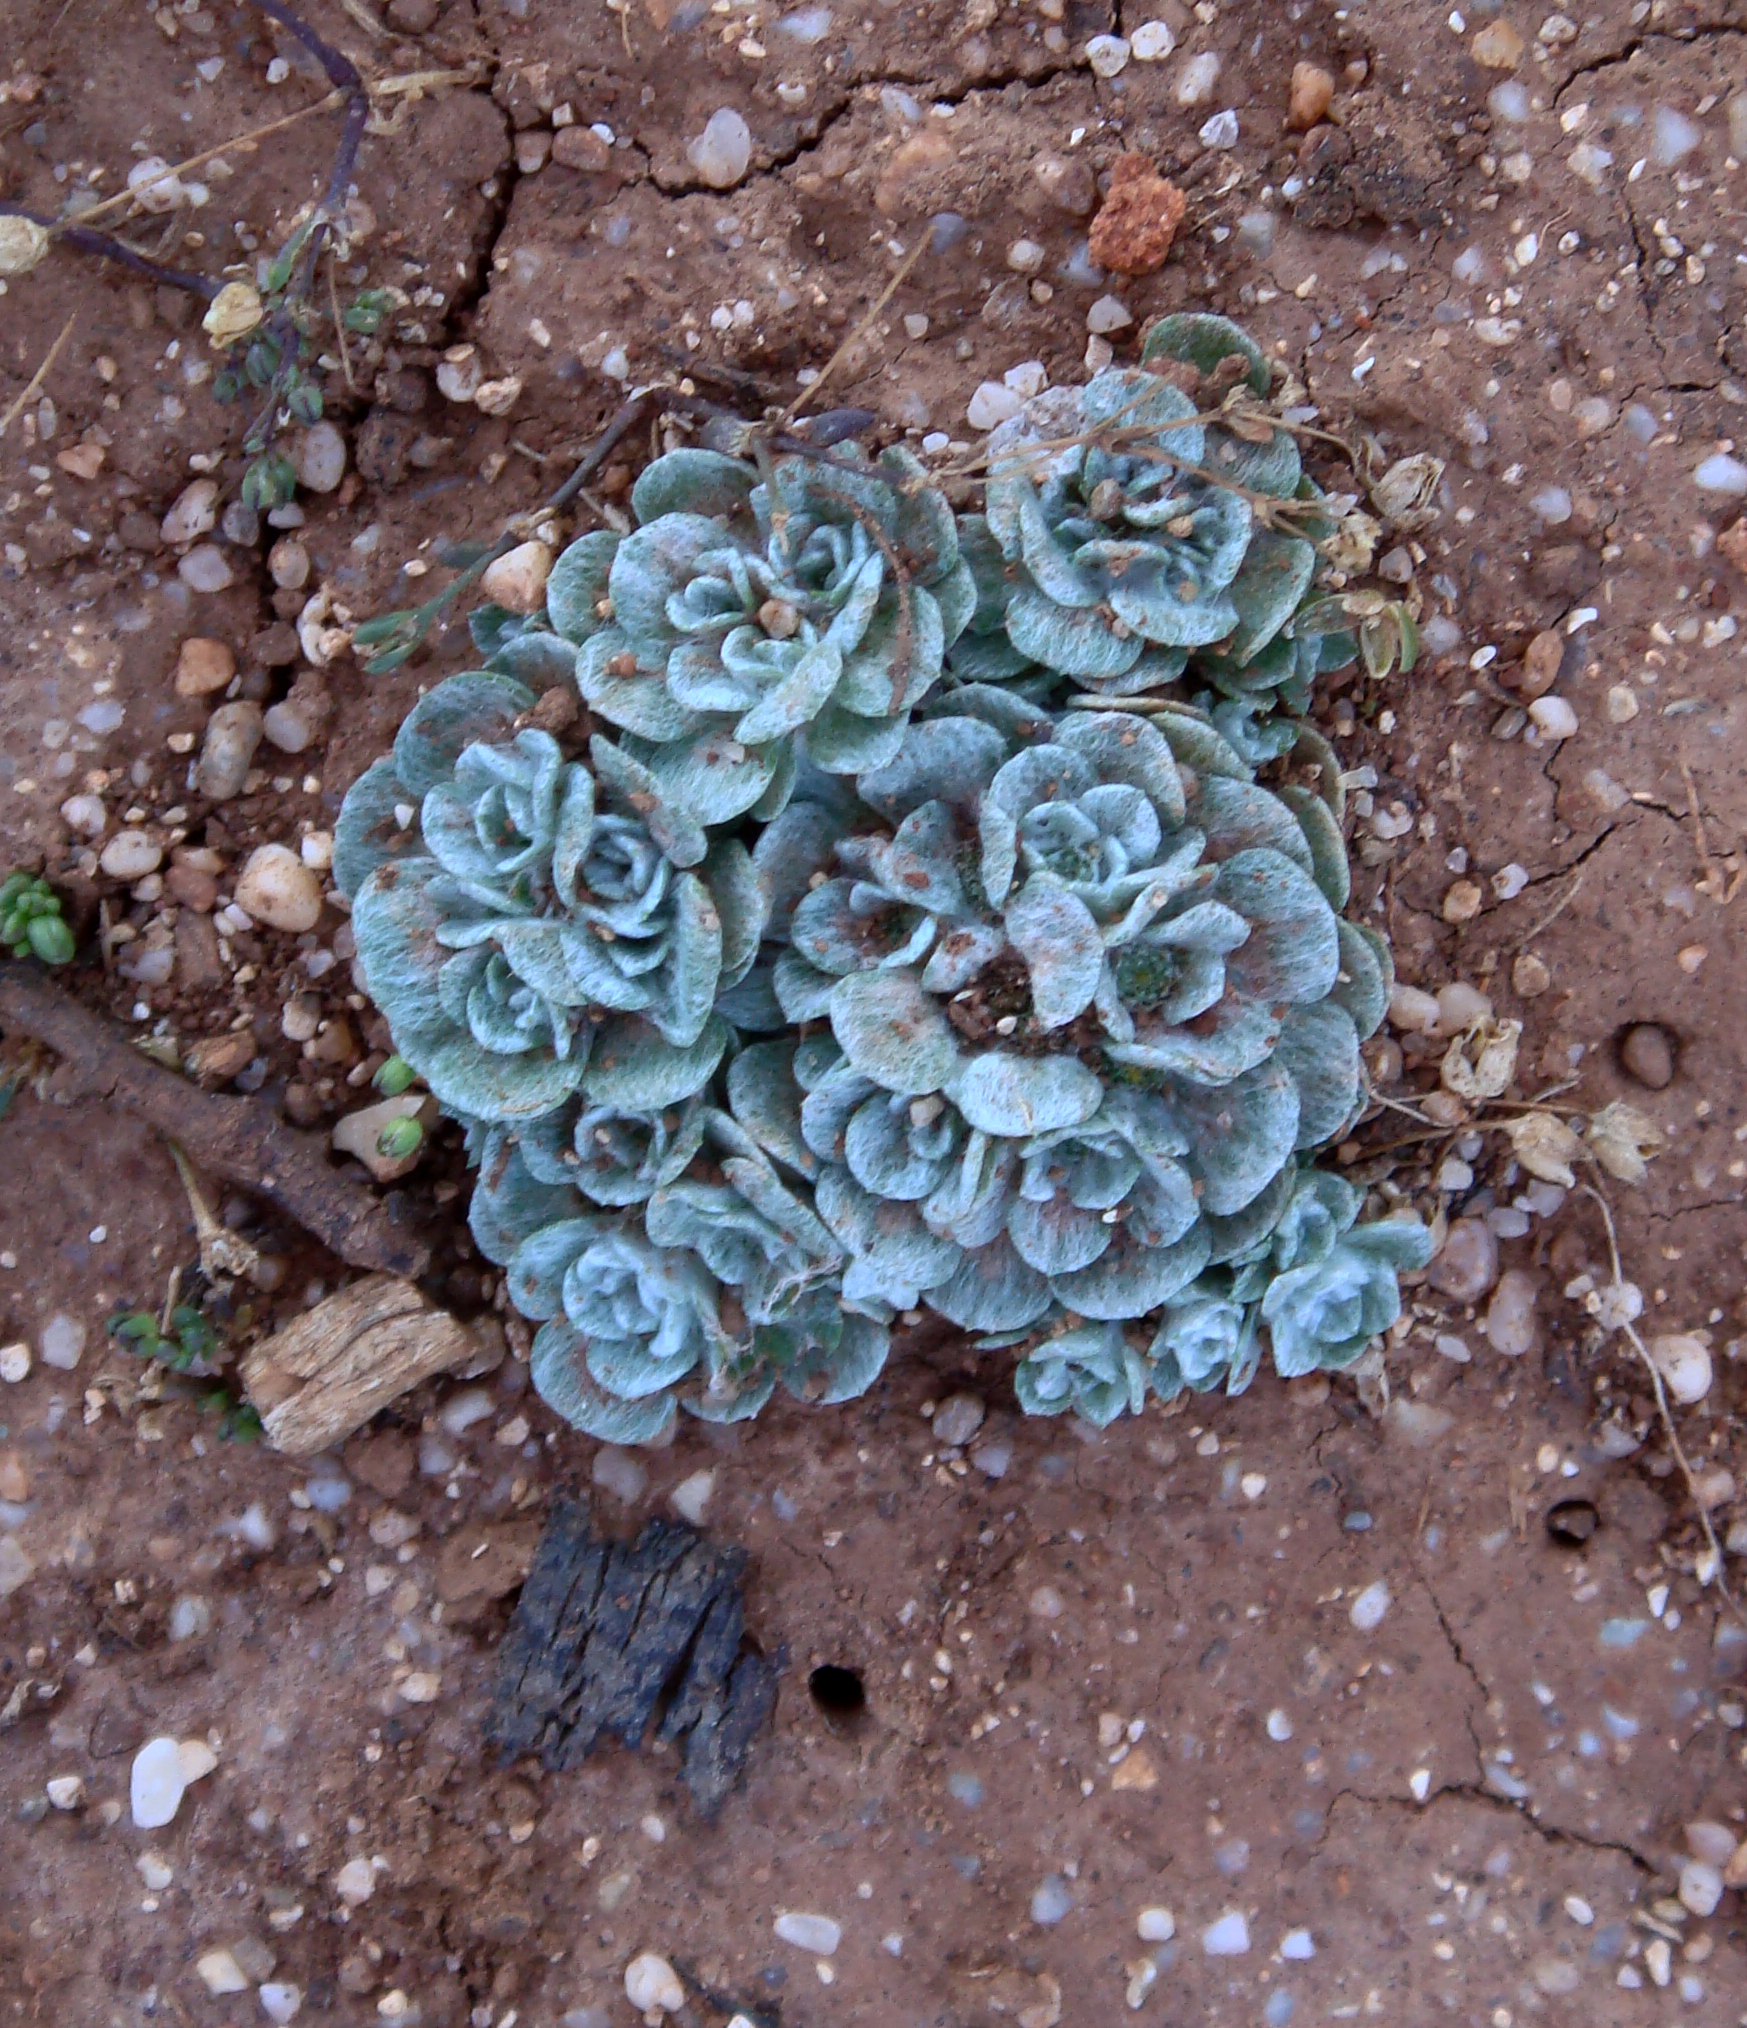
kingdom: Plantae
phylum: Tracheophyta
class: Magnoliopsida
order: Asterales
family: Asteraceae
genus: Filago
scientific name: Filago tyrrhenica
